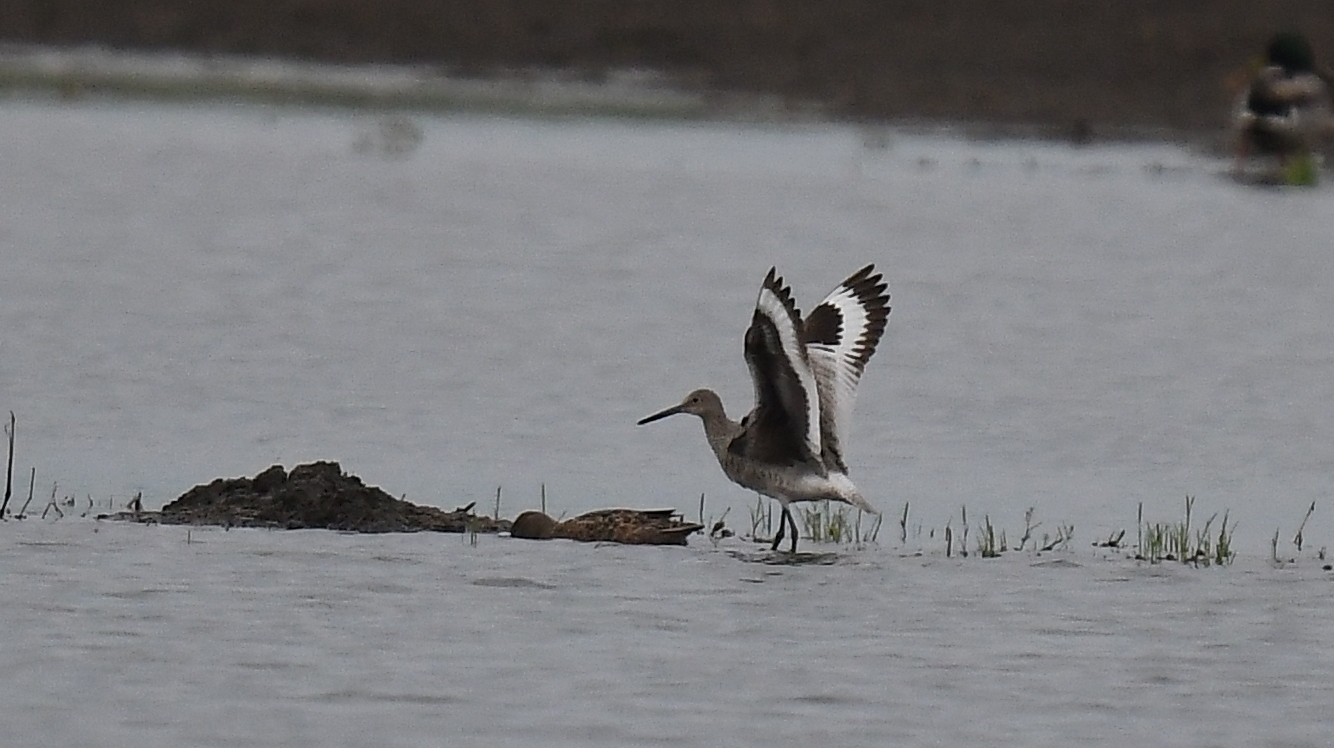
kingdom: Animalia
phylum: Chordata
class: Aves
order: Charadriiformes
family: Scolopacidae
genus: Tringa
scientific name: Tringa semipalmata
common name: Willet
